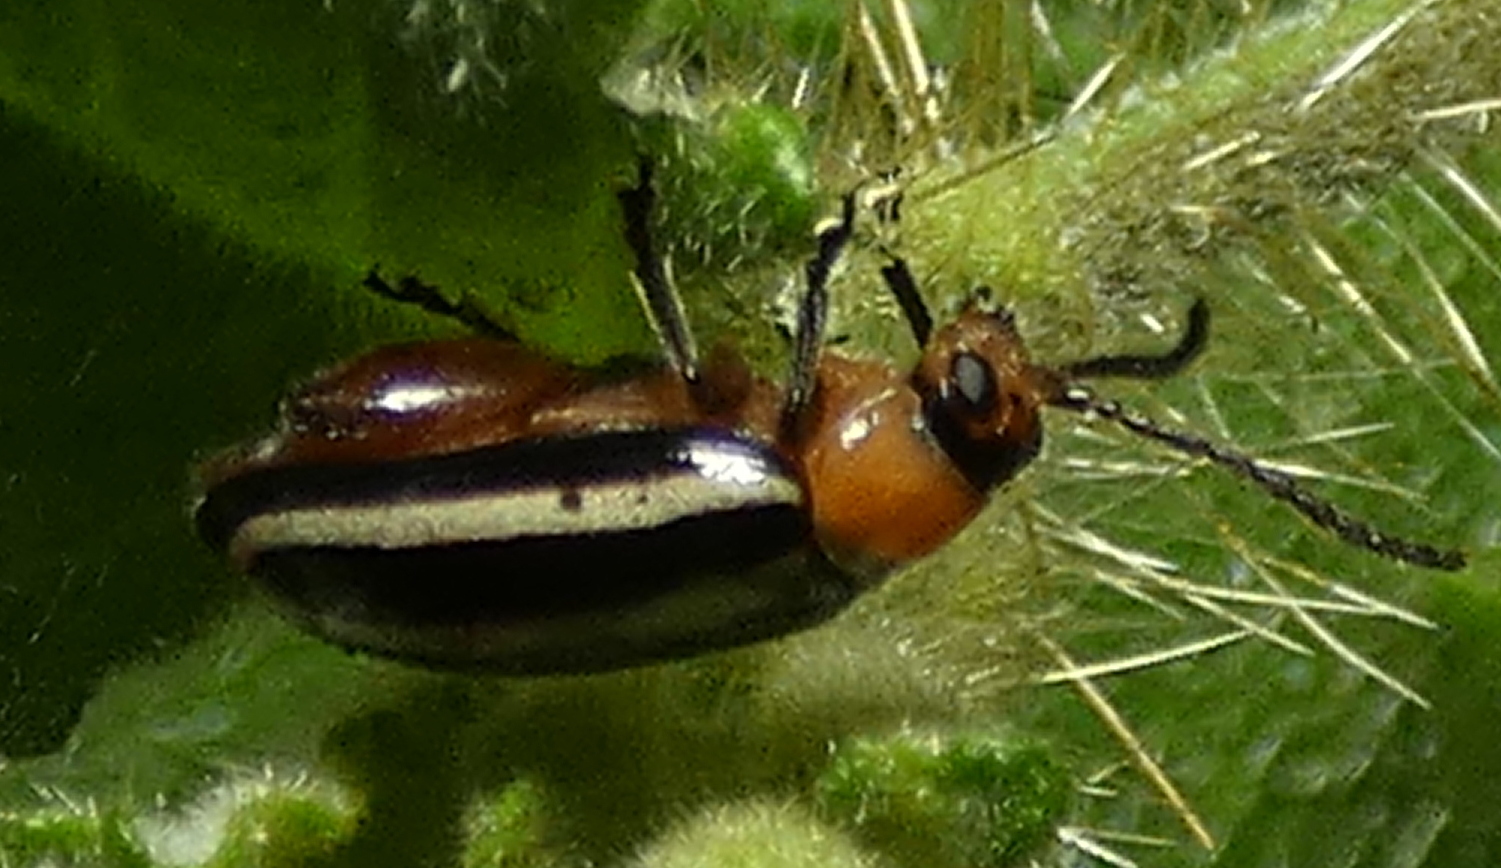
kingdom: Animalia
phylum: Arthropoda
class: Insecta
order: Coleoptera
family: Chrysomelidae
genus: Disonycha
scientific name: Disonycha glabrata
